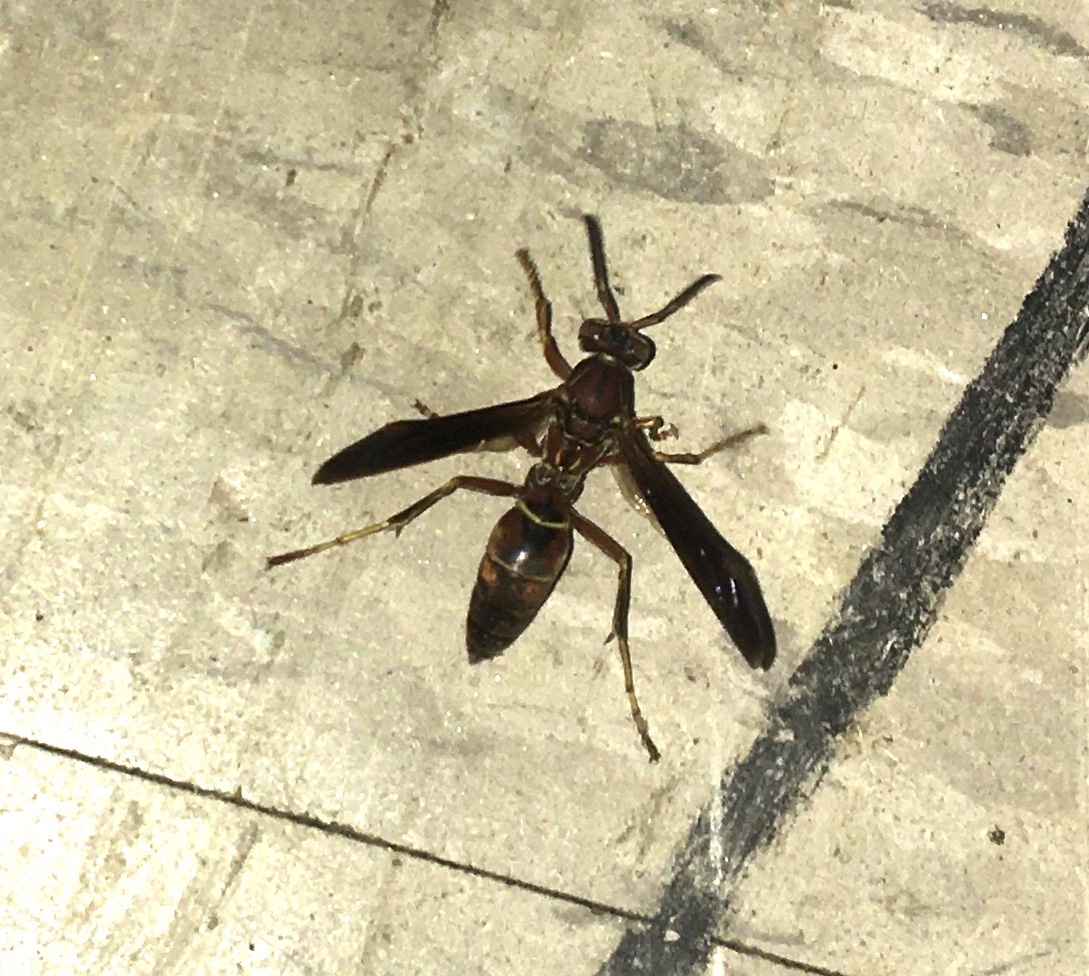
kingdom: Animalia
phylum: Arthropoda
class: Insecta
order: Hymenoptera
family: Eumenidae
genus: Polistes
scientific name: Polistes fuscatus
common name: Dark paper wasp
